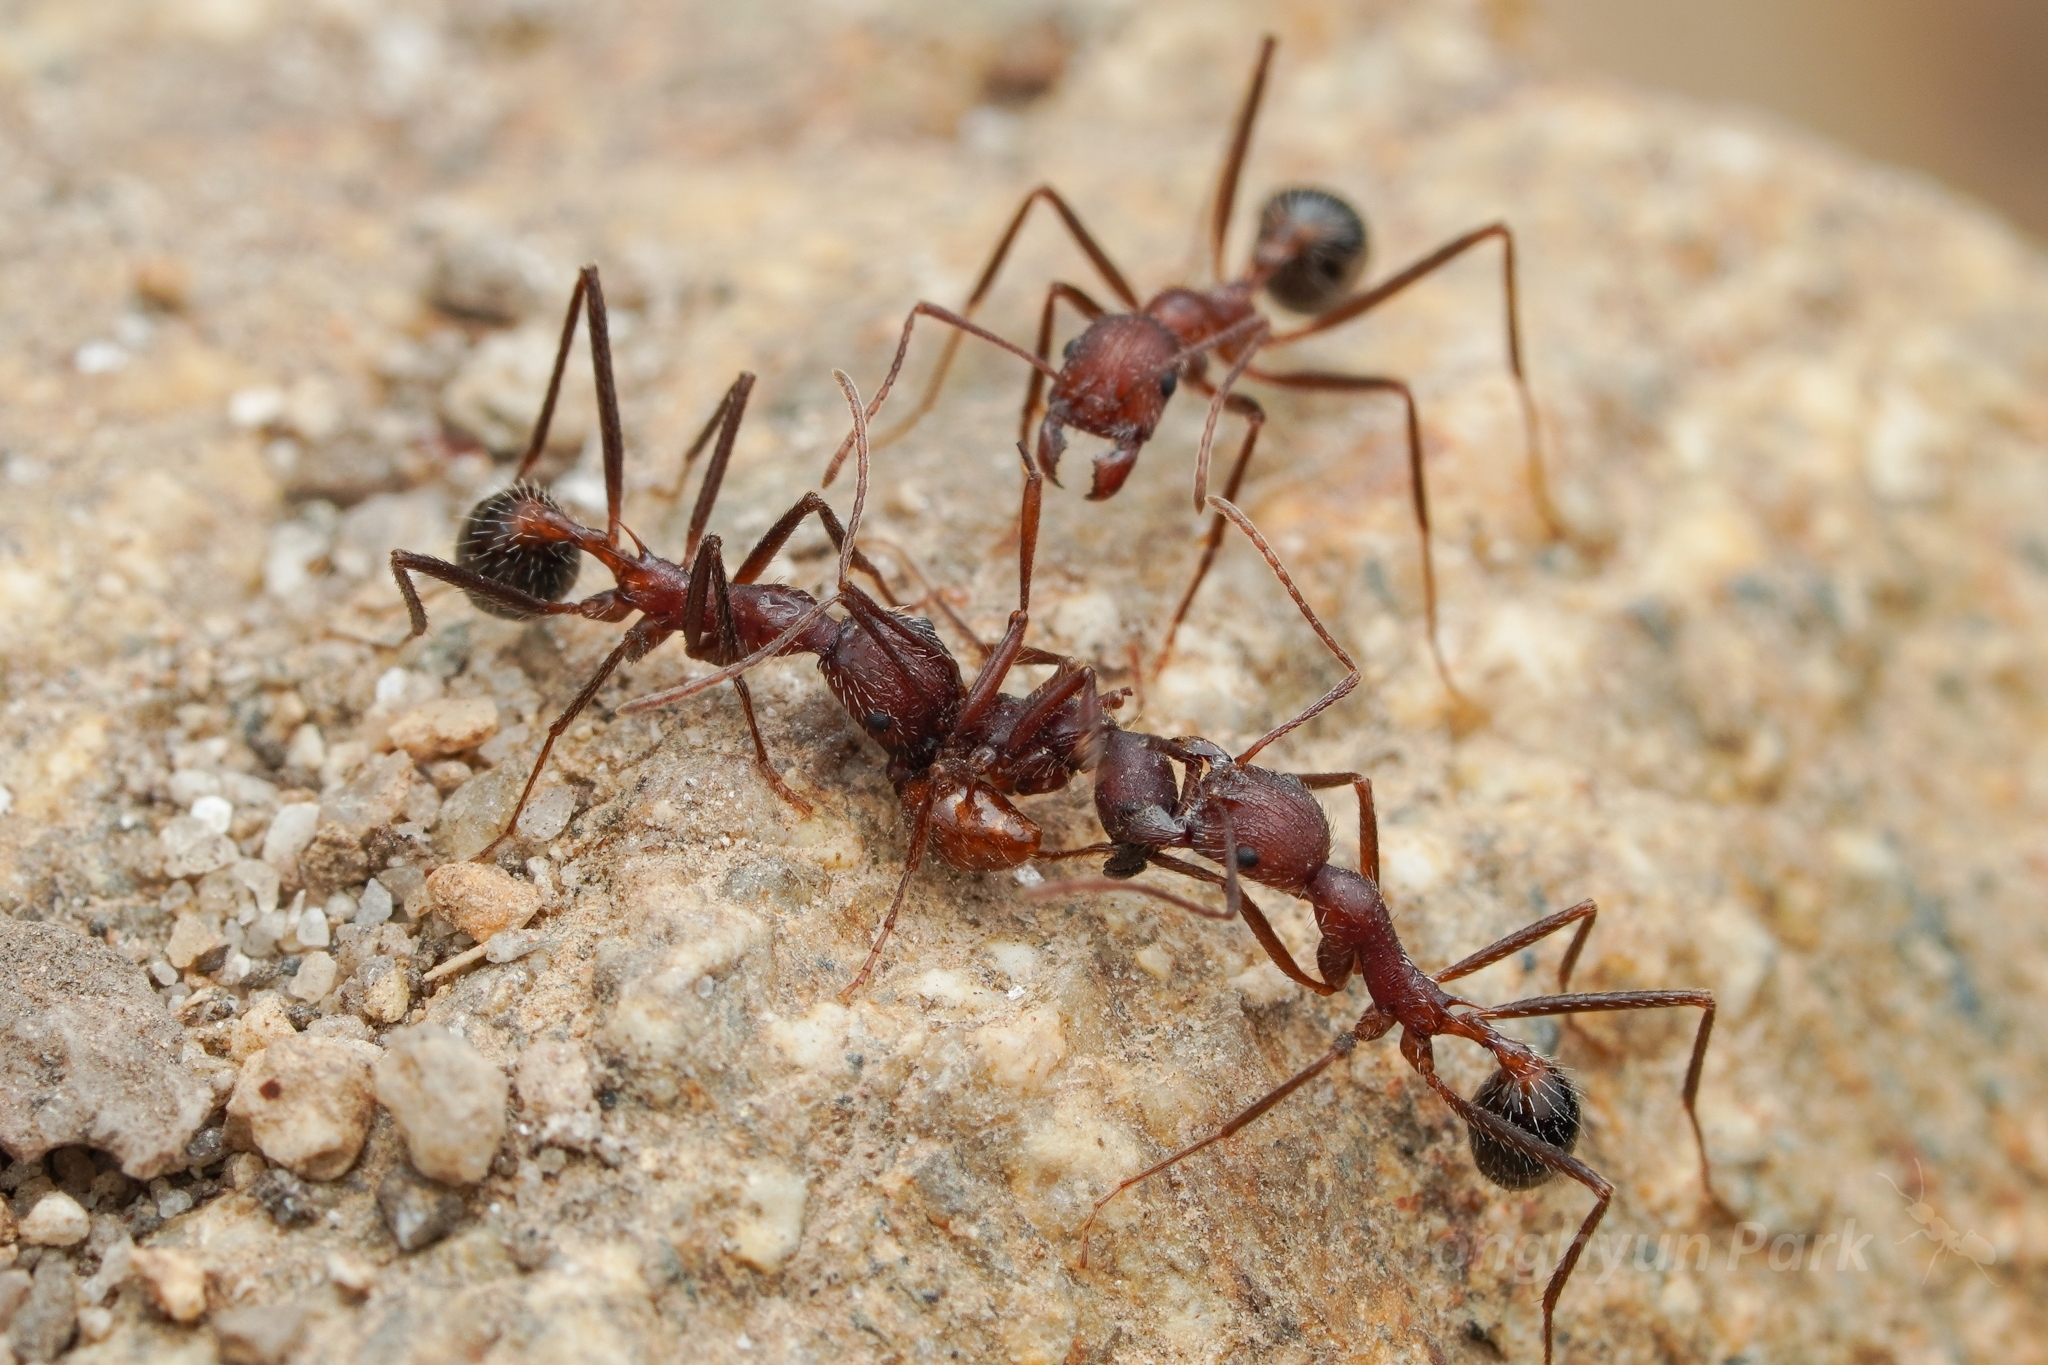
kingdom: Animalia
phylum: Arthropoda
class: Insecta
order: Hymenoptera
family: Formicidae
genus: Neivamyrmex
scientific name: Neivamyrmex nigrescens
